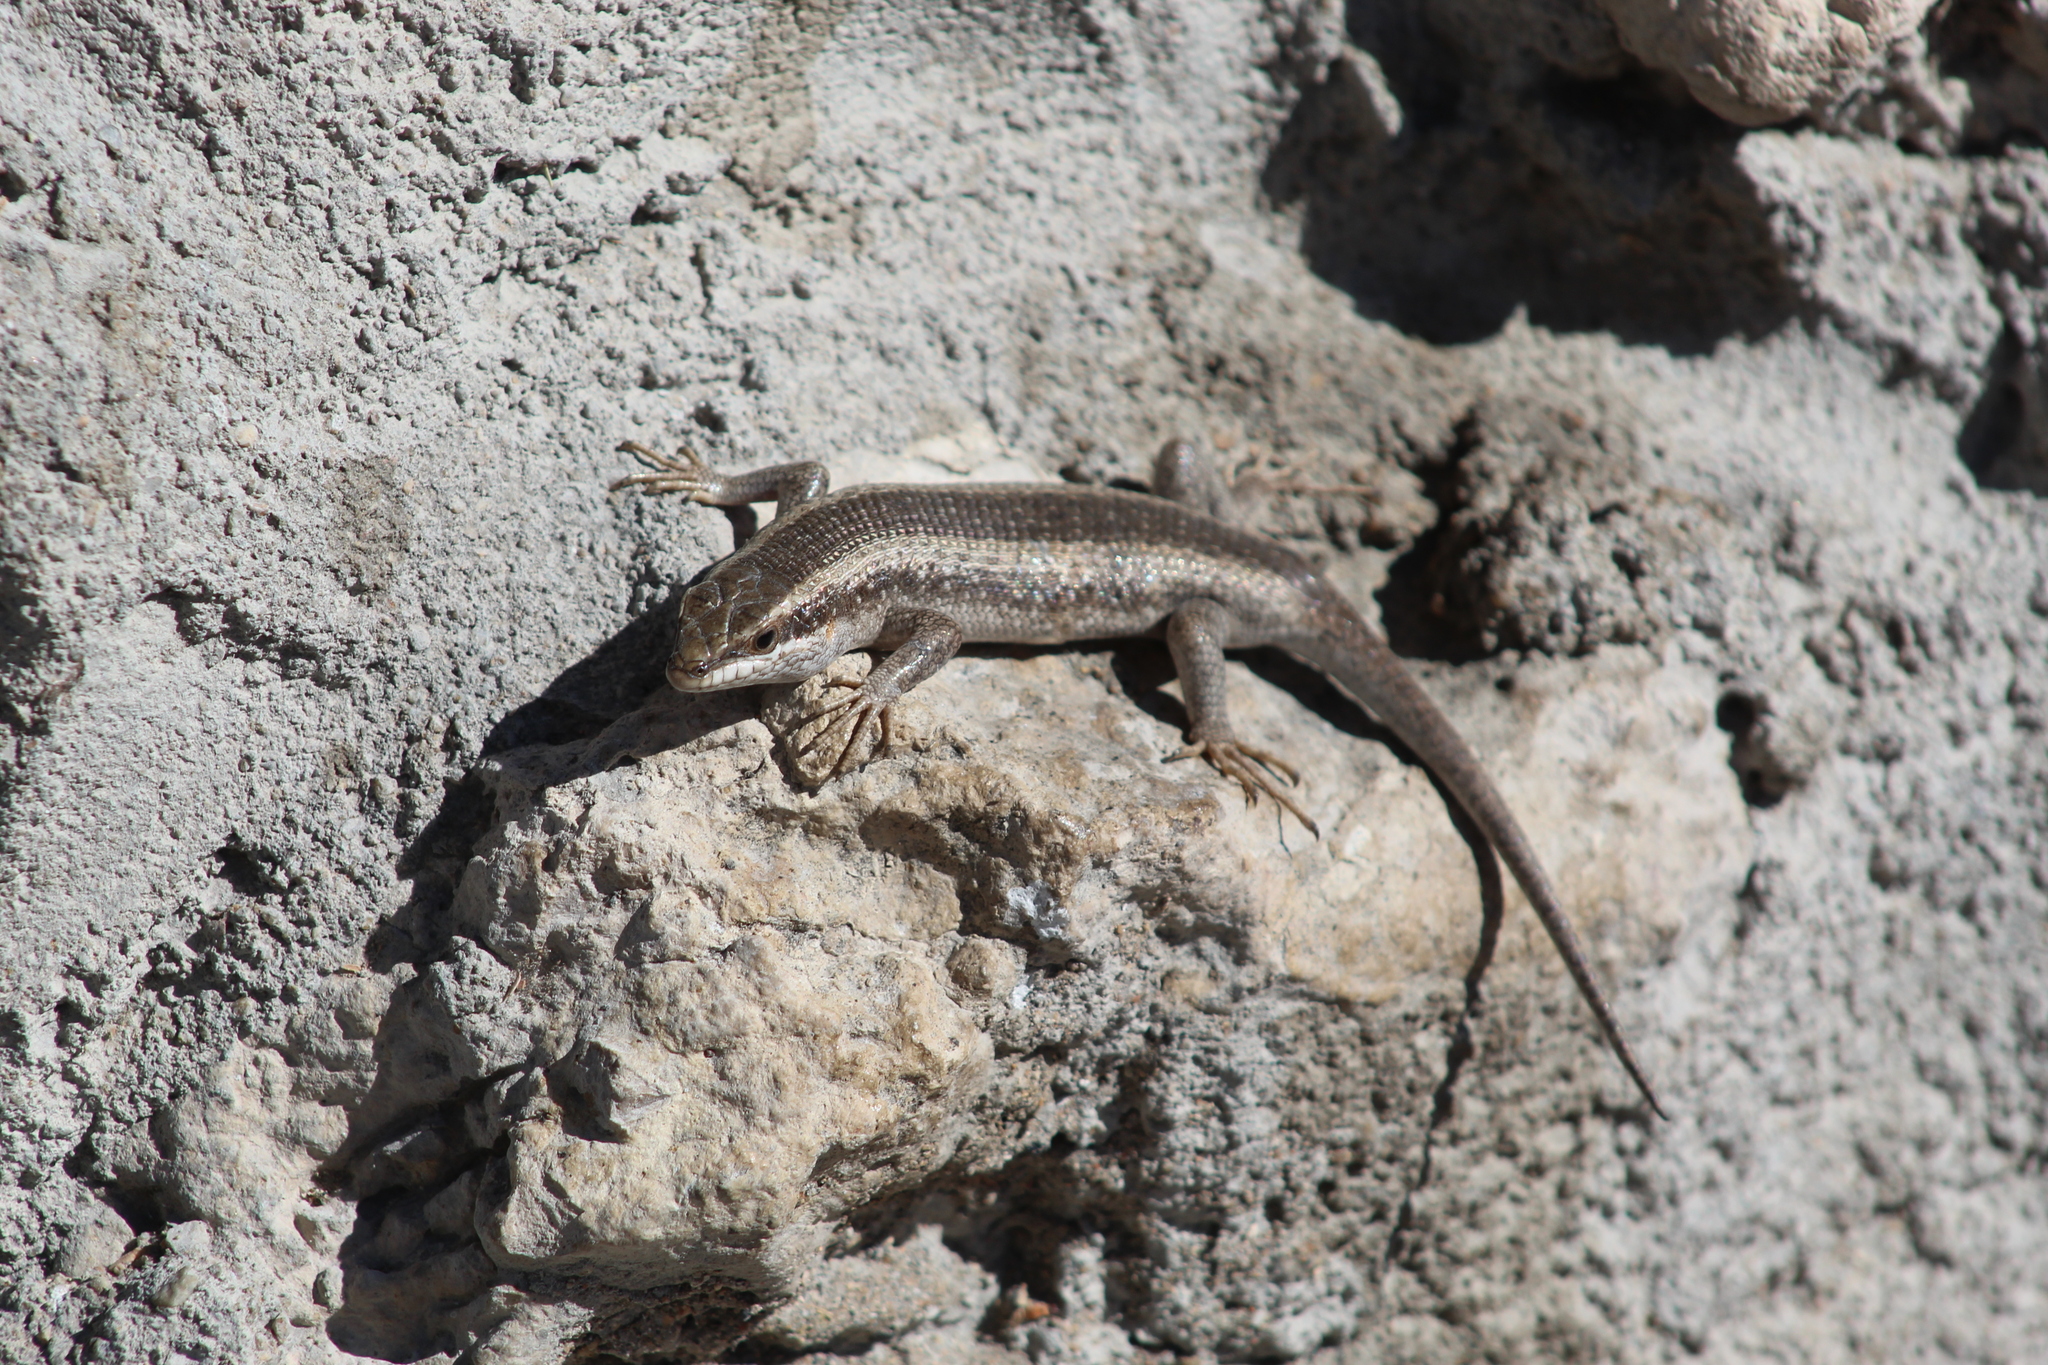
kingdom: Animalia
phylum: Chordata
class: Squamata
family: Scincidae
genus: Trachylepis
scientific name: Trachylepis spilogaster
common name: Kalahari tree skink
